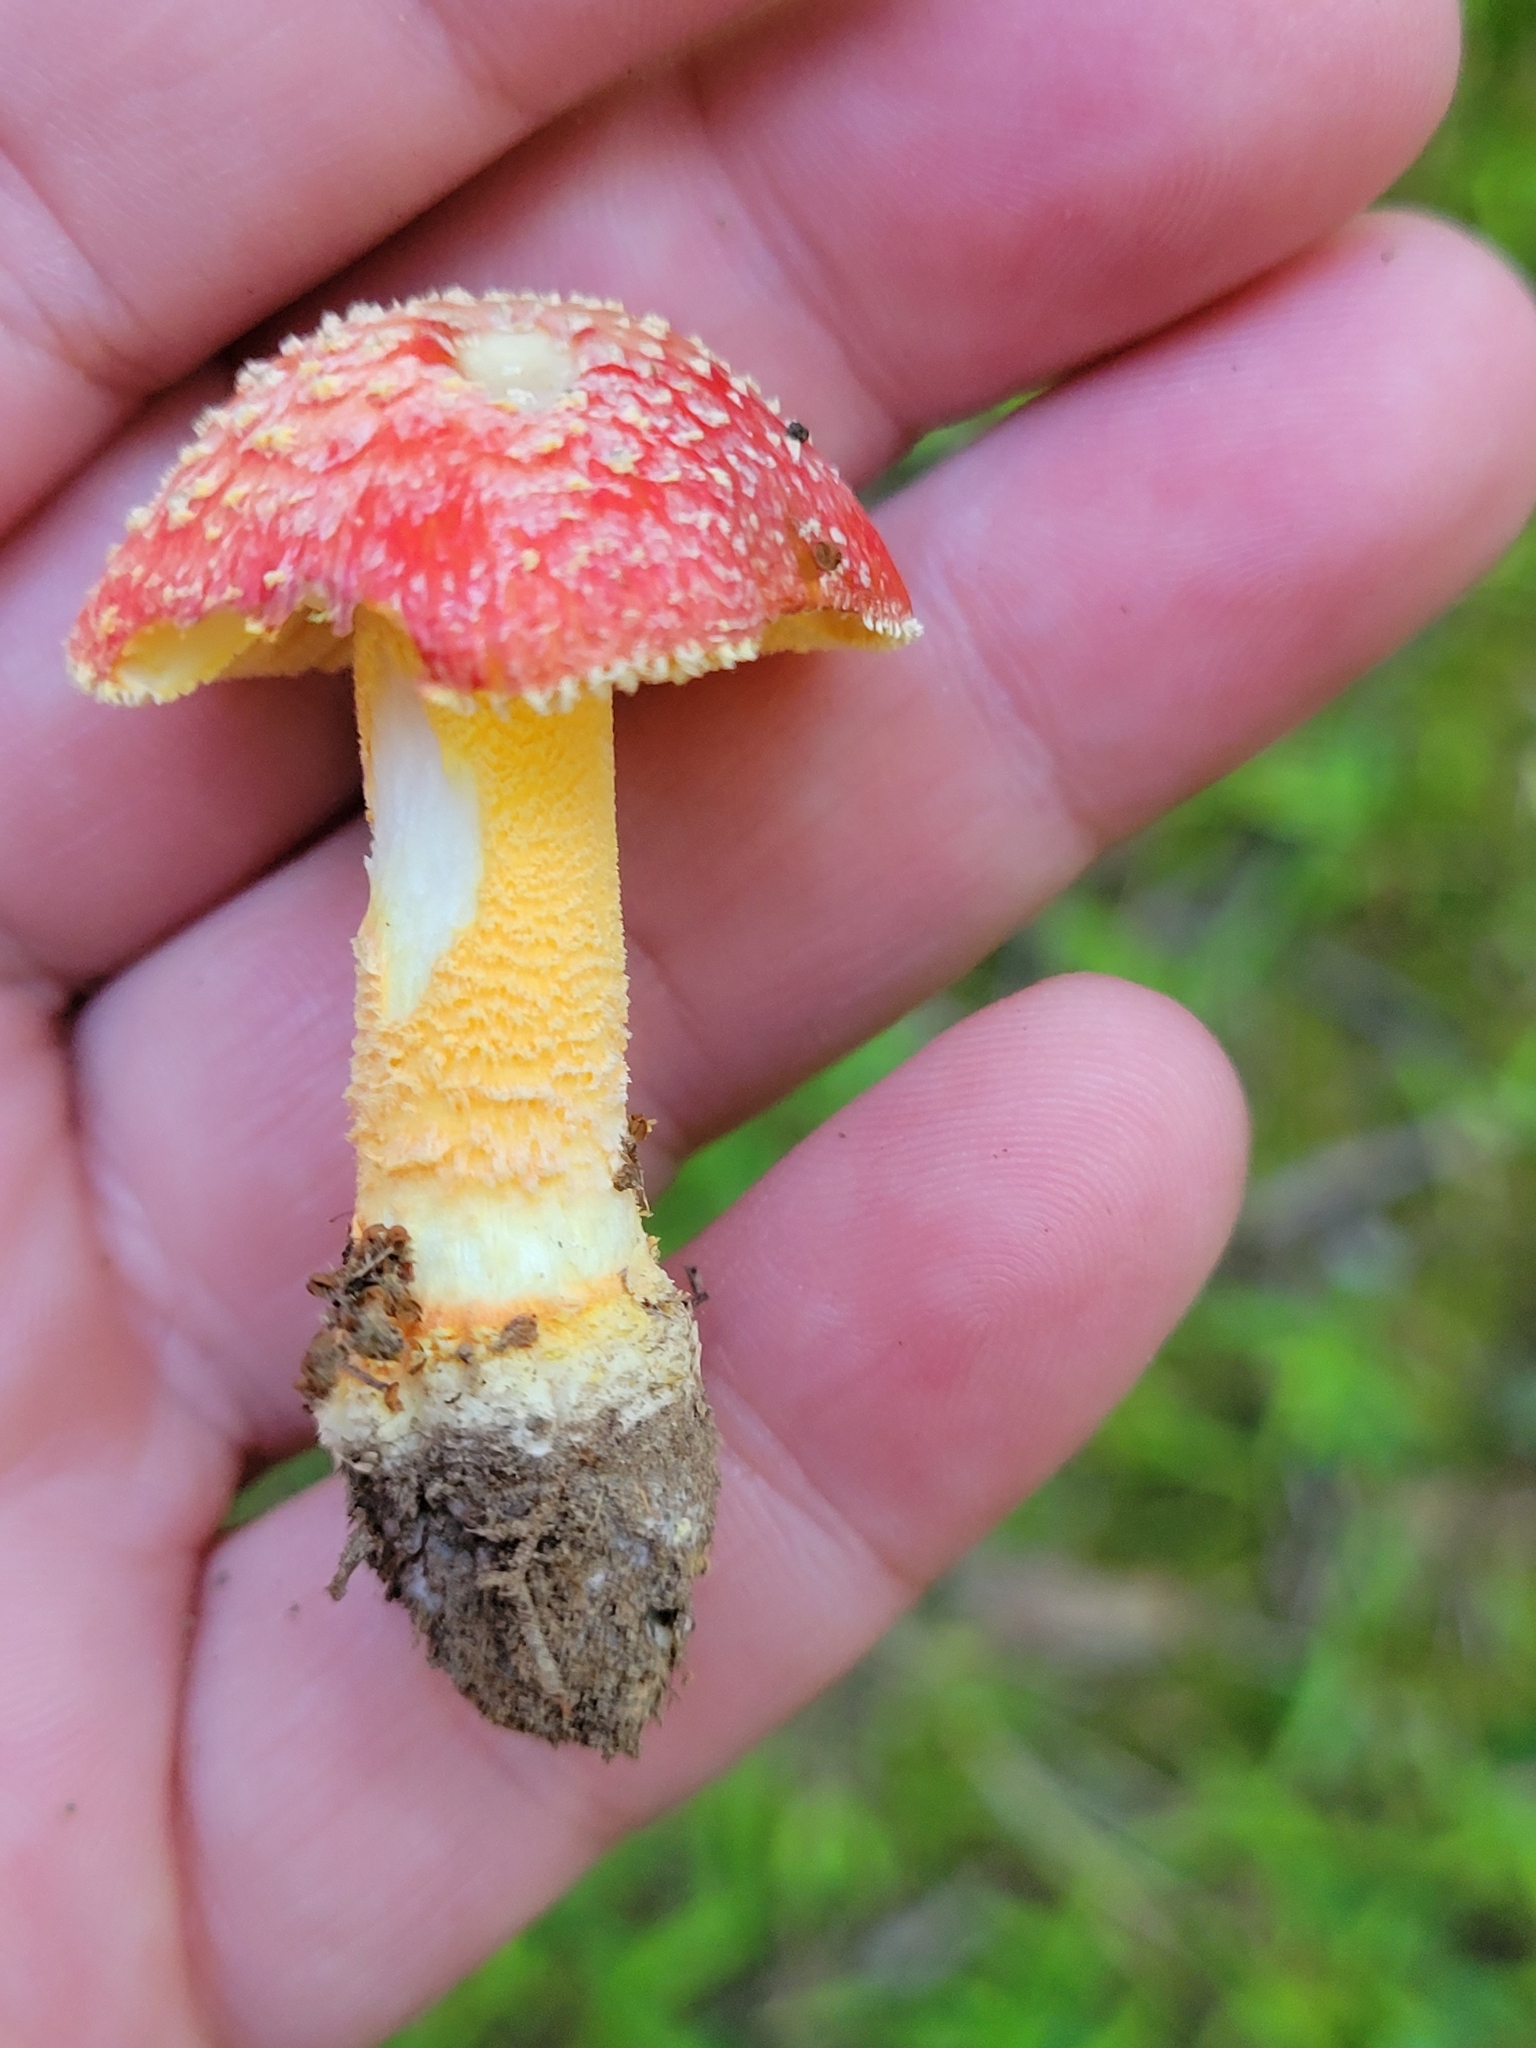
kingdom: Fungi
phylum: Basidiomycota
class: Agaricomycetes
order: Agaricales
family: Amanitaceae
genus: Amanita
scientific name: Amanita parcivolvata
